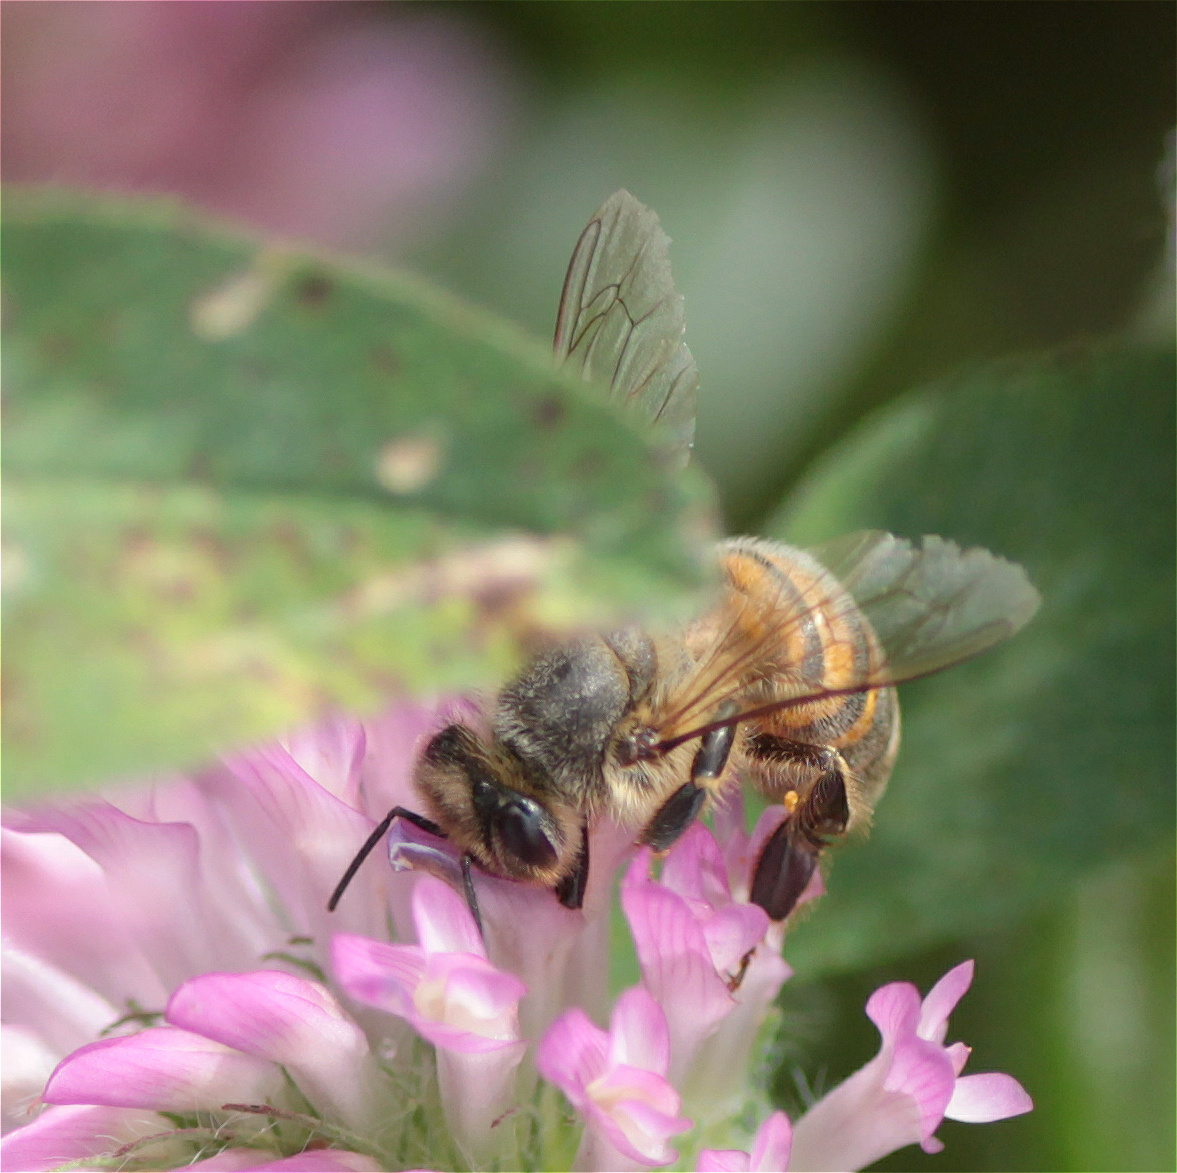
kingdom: Animalia
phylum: Arthropoda
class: Insecta
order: Hymenoptera
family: Apidae
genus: Apis
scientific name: Apis mellifera
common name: Honey bee
